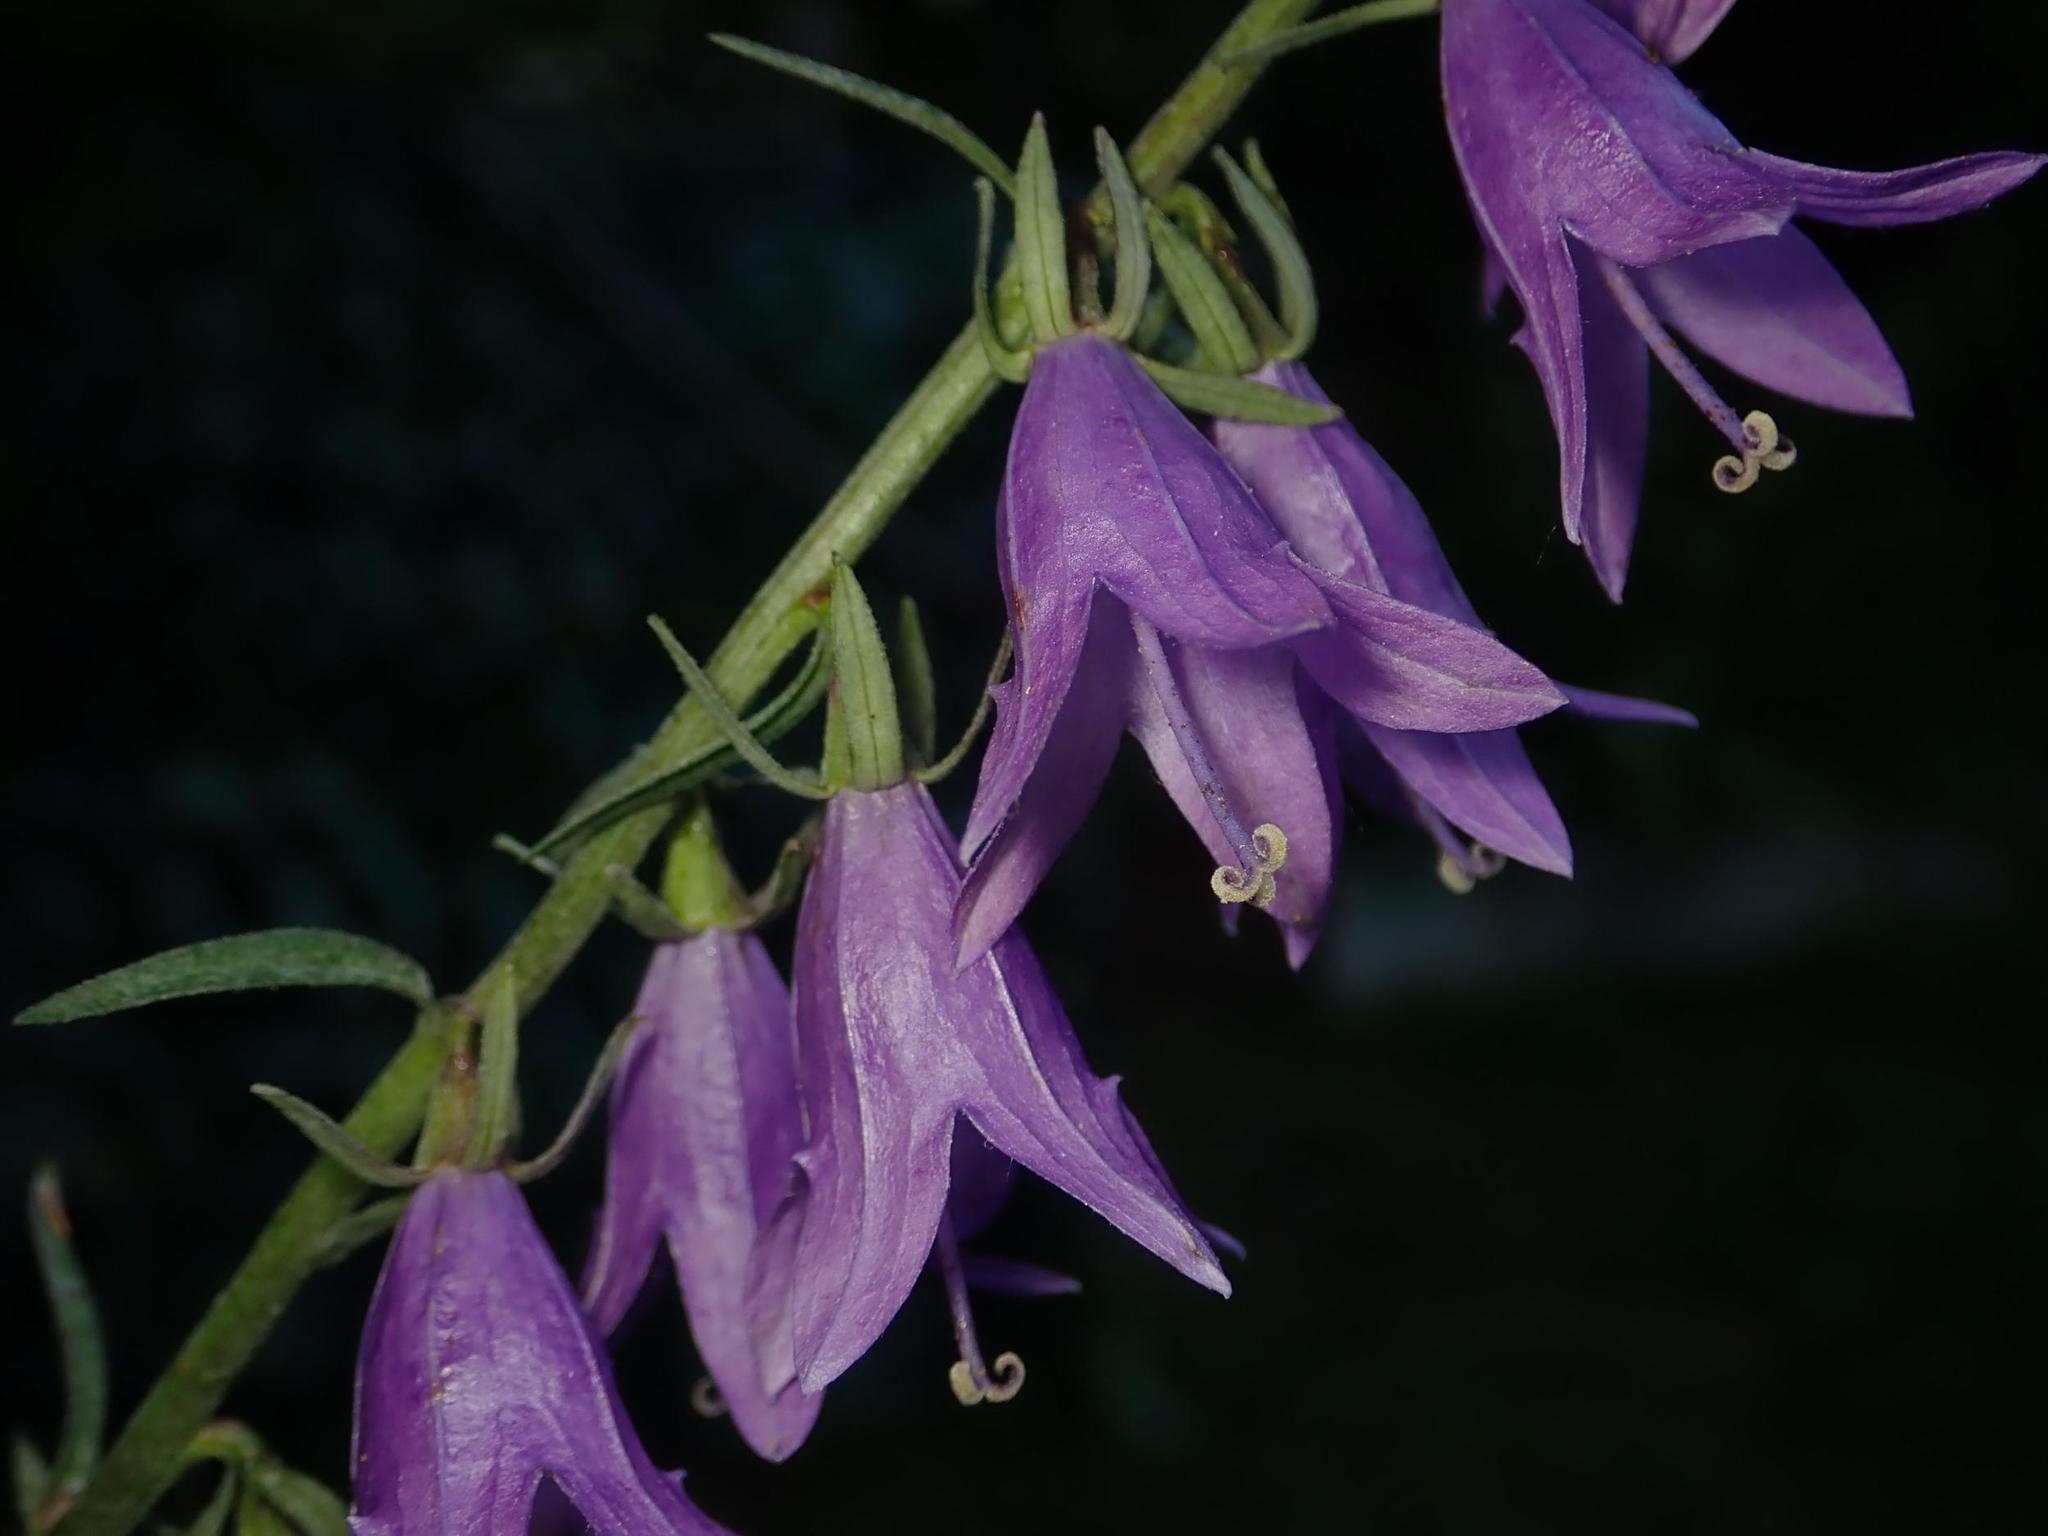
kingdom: Plantae
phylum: Tracheophyta
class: Magnoliopsida
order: Asterales
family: Campanulaceae
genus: Campanula
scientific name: Campanula rapunculoides
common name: Creeping bellflower
